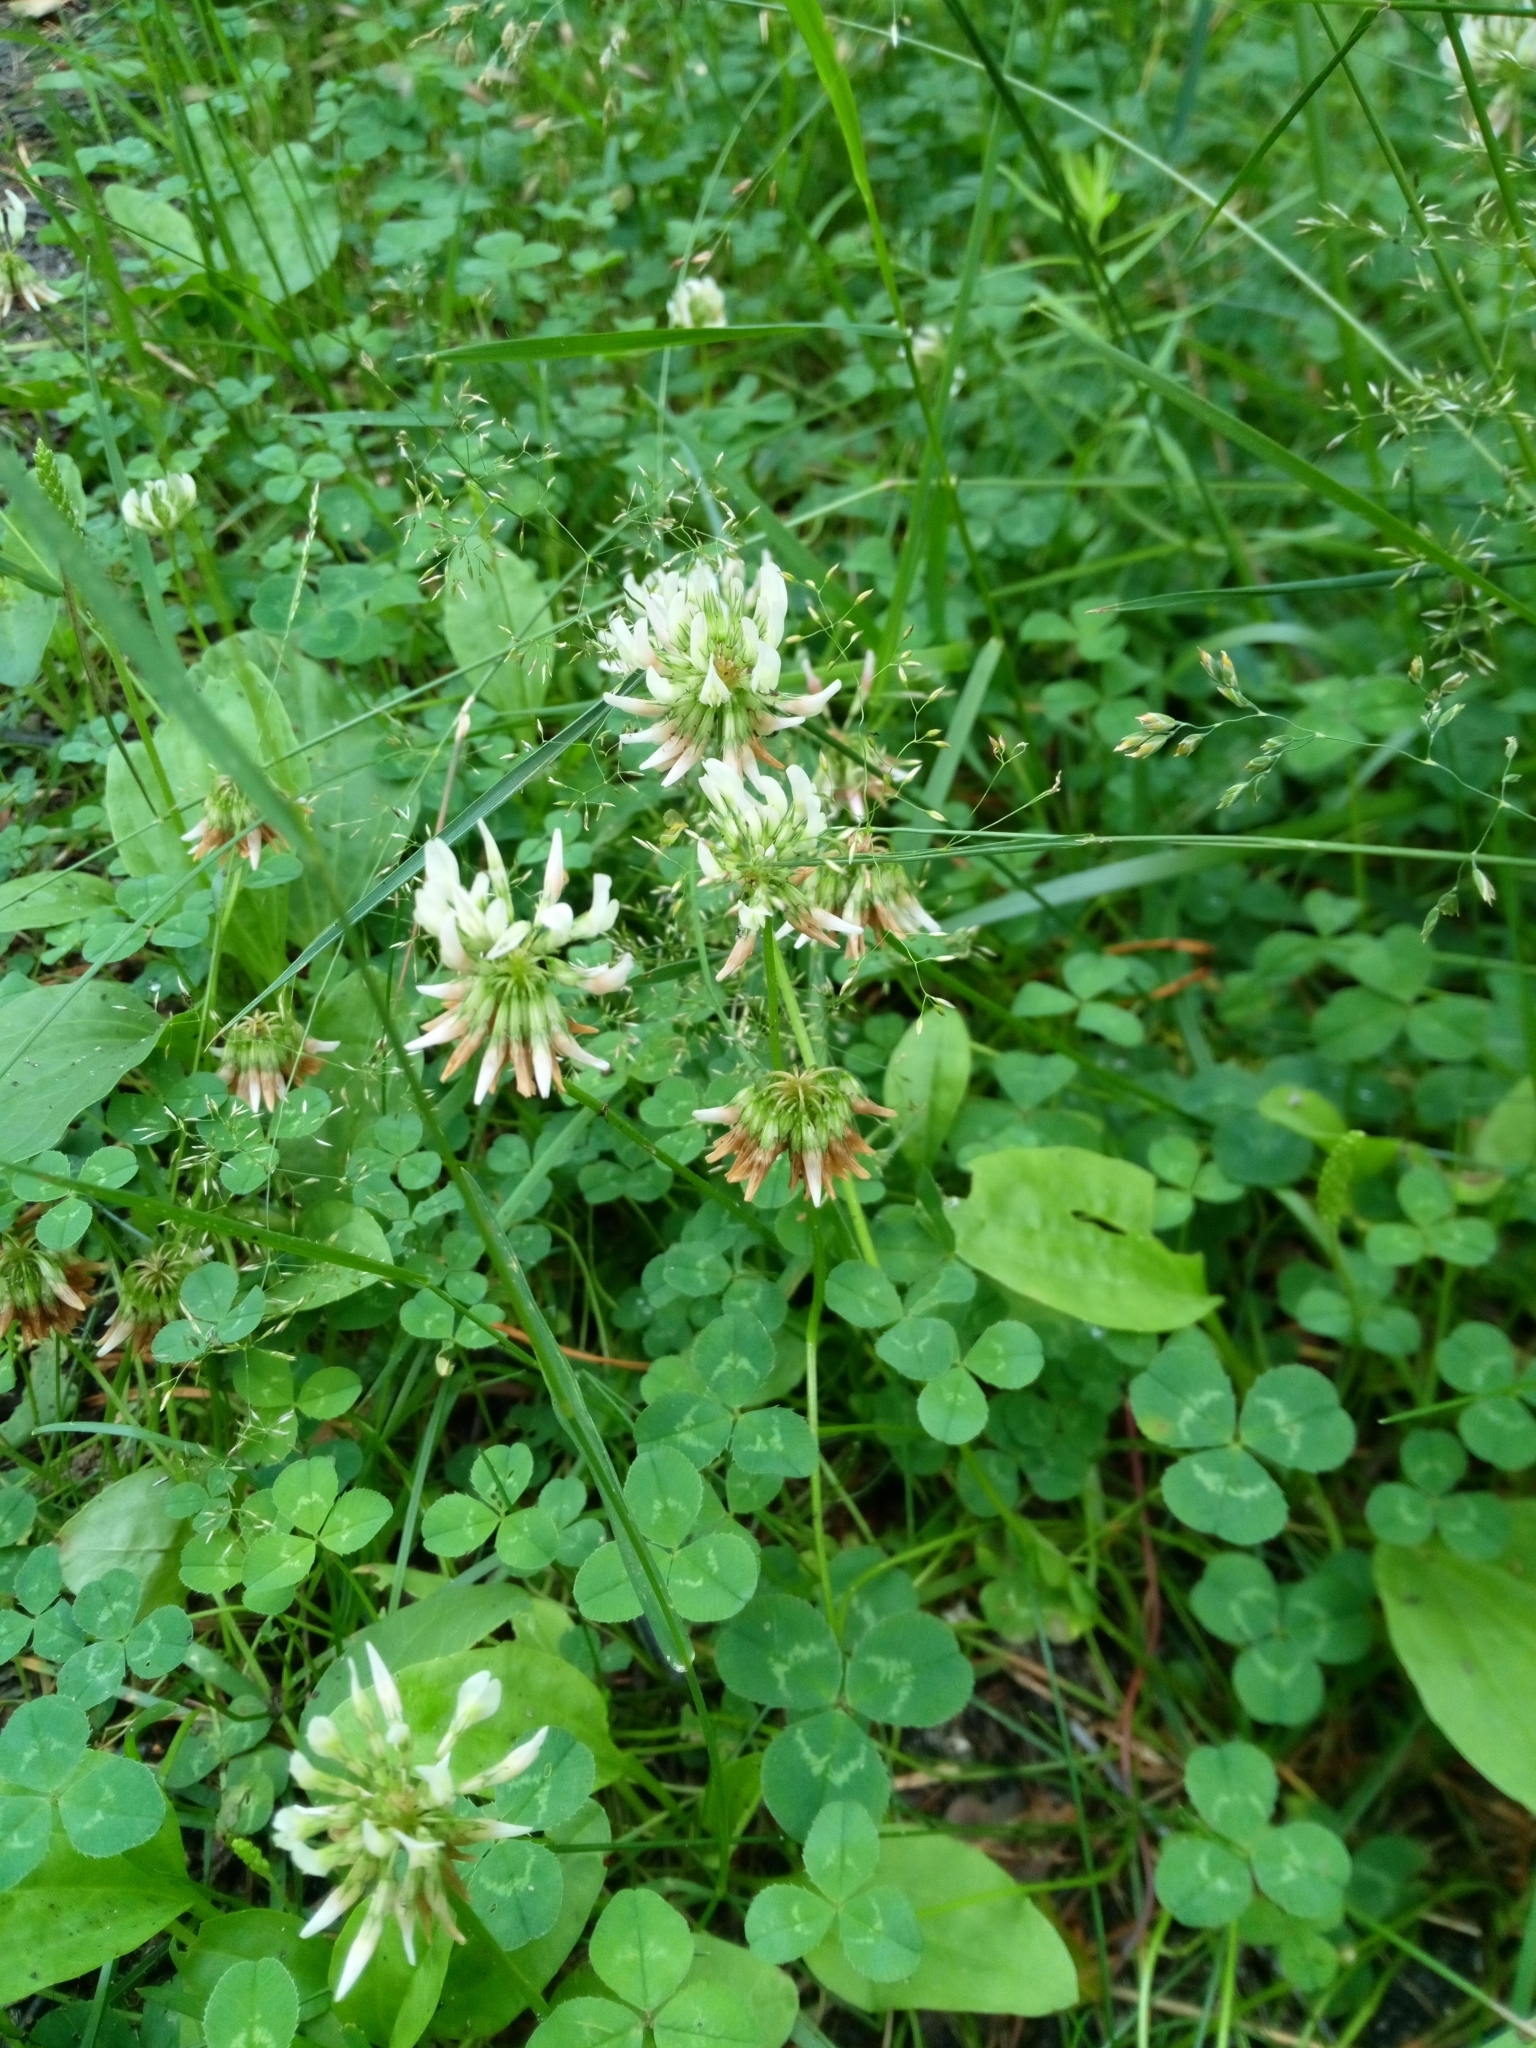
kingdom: Plantae
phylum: Tracheophyta
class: Magnoliopsida
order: Fabales
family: Fabaceae
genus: Trifolium
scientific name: Trifolium repens
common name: White clover
